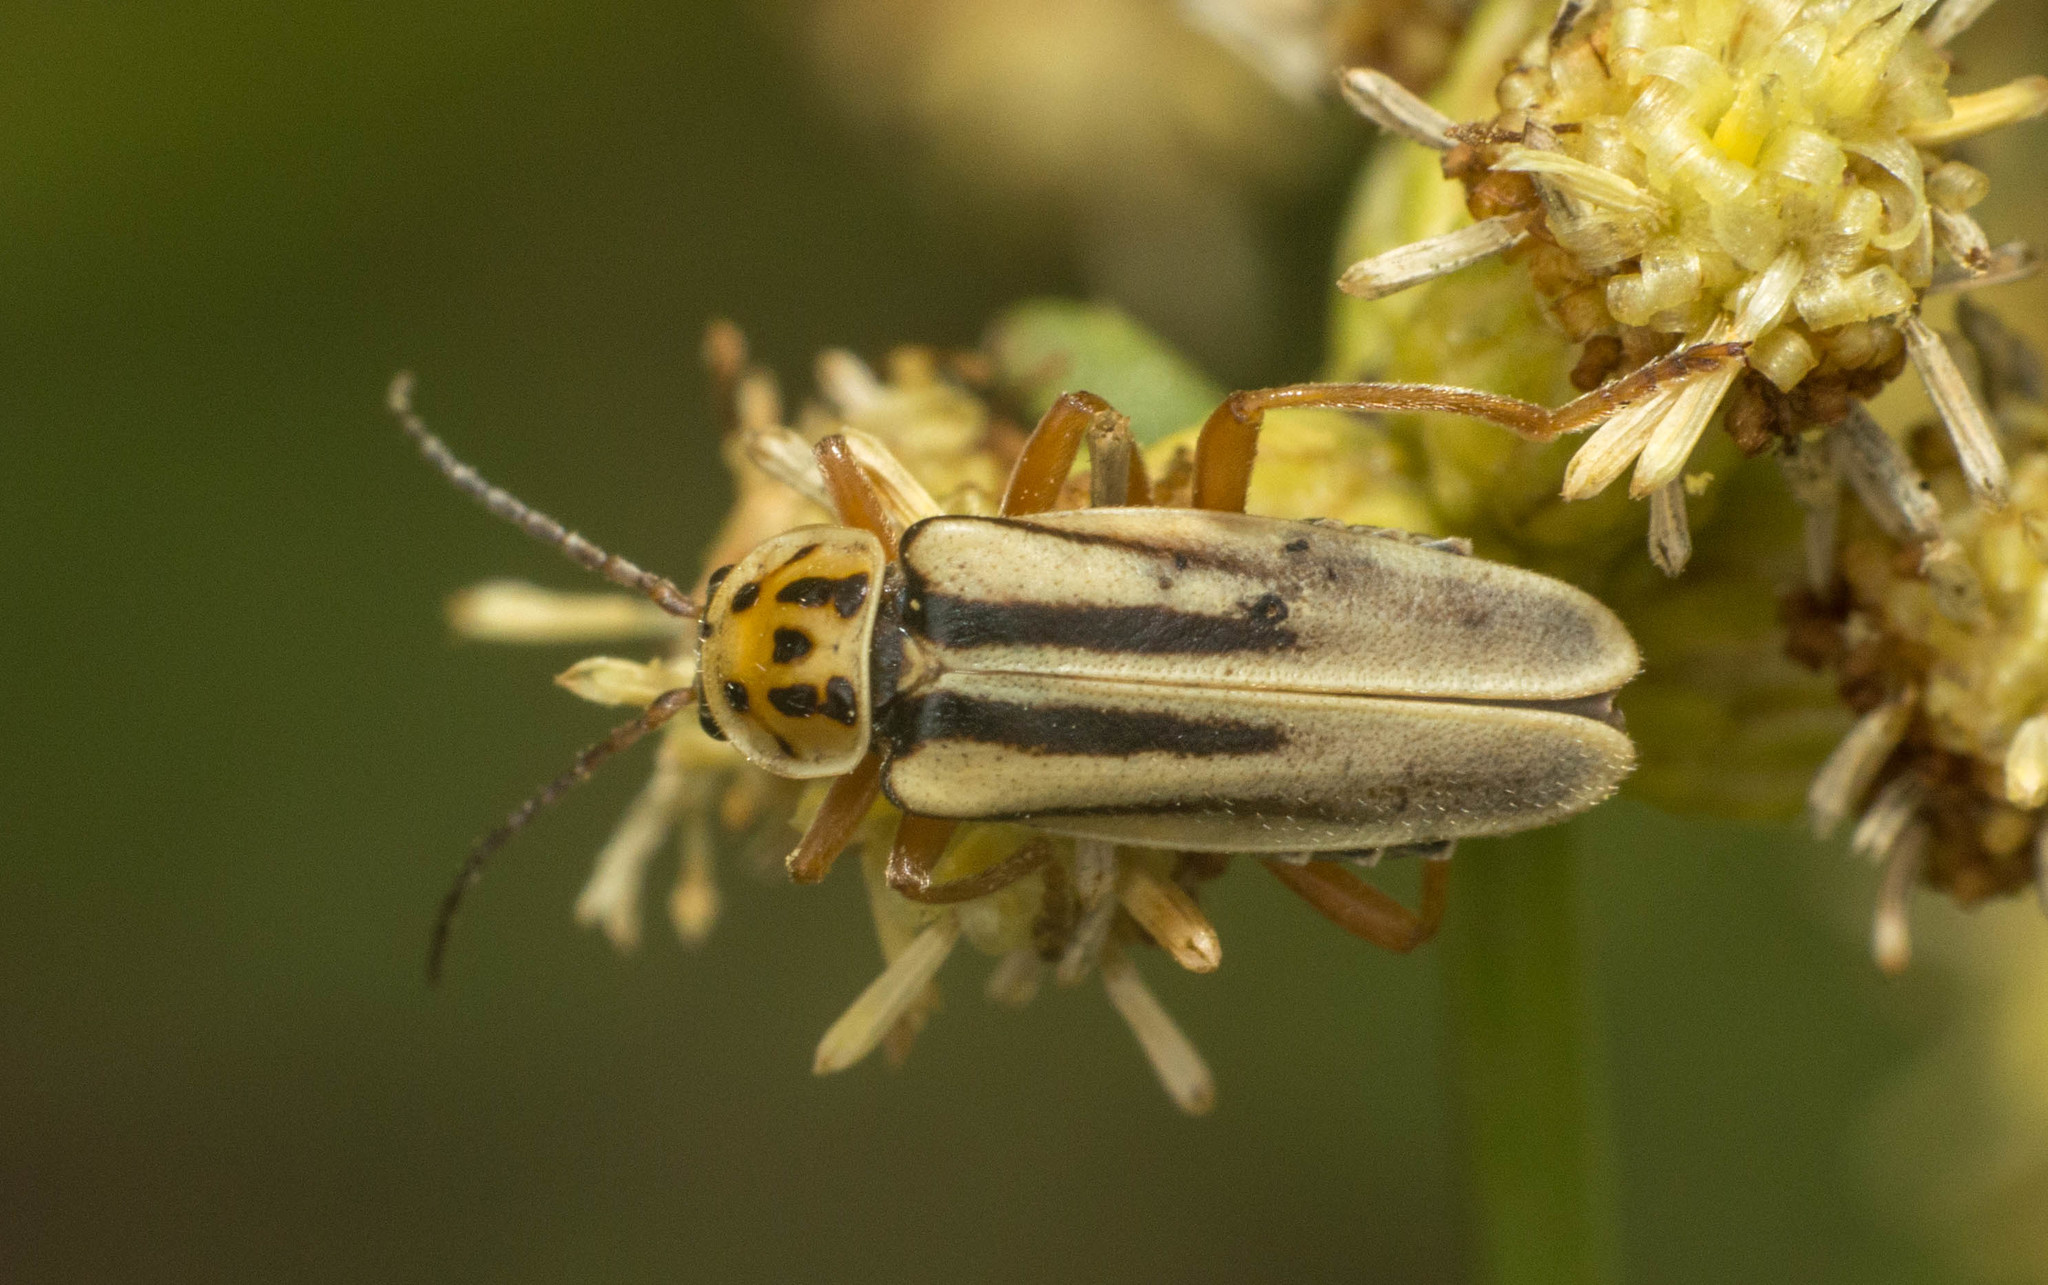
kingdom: Animalia
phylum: Arthropoda
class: Insecta
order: Coleoptera
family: Cantharidae
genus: Chauliognathus
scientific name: Chauliognathus
